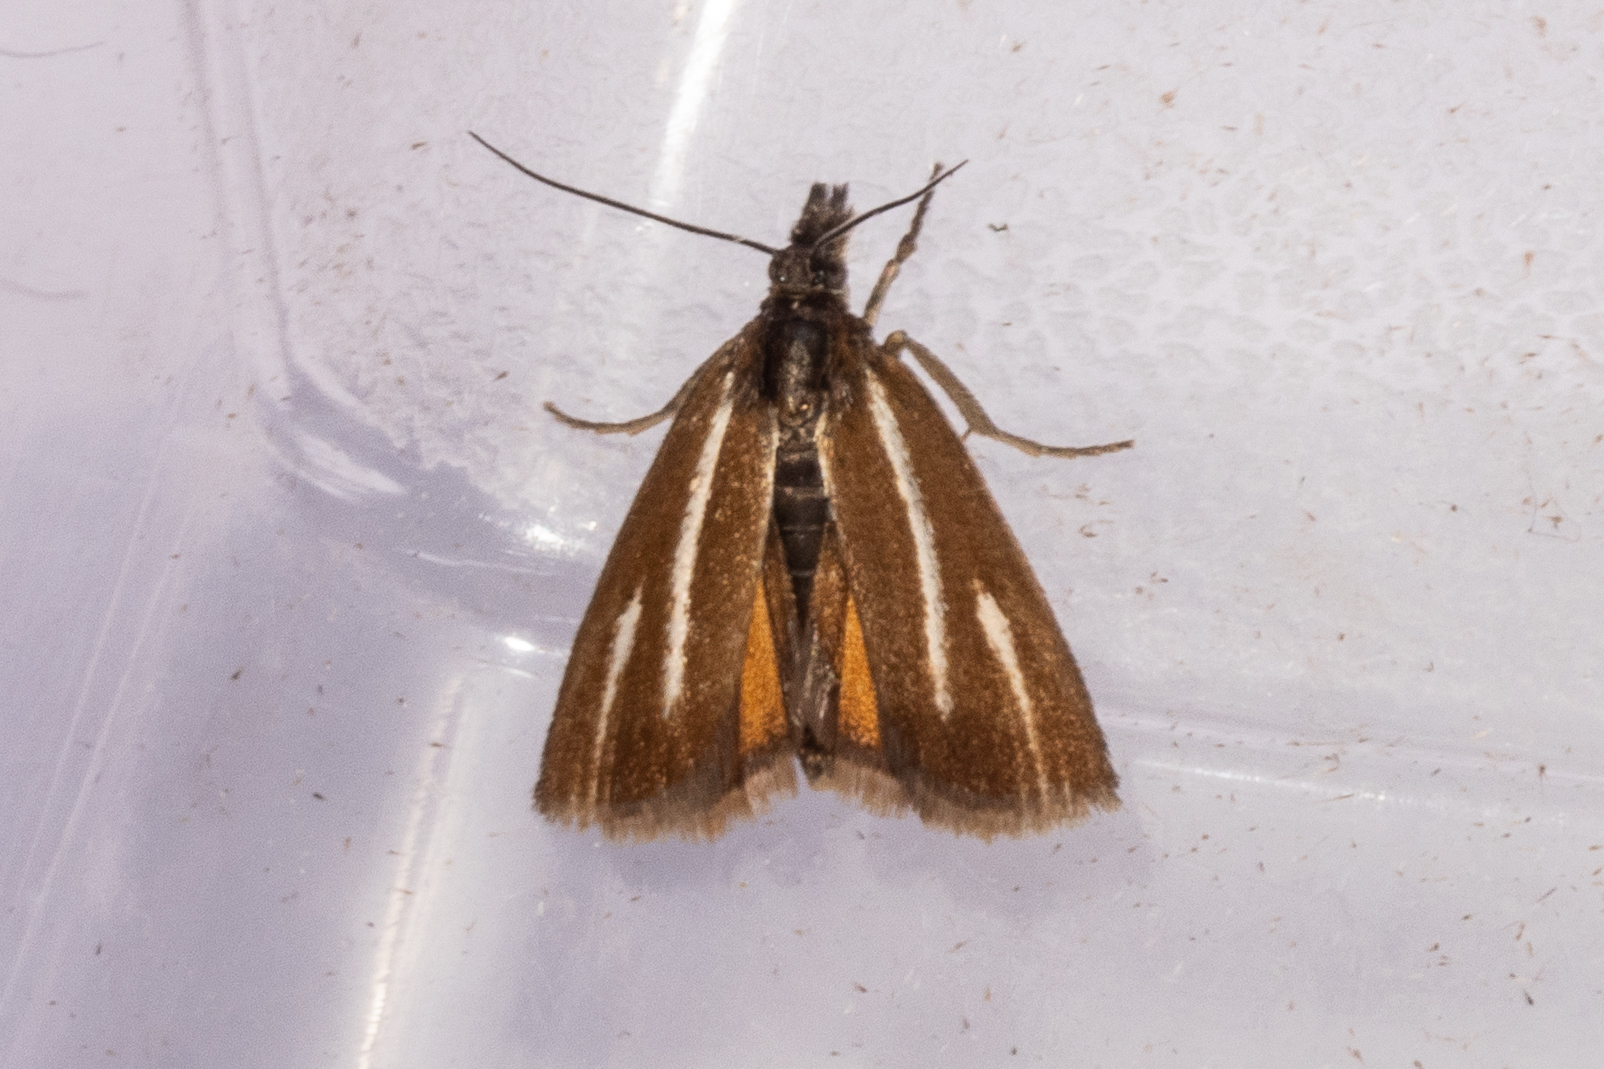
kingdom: Animalia
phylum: Arthropoda
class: Insecta
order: Lepidoptera
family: Crambidae
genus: Orocrambus
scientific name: Orocrambus heliotes
